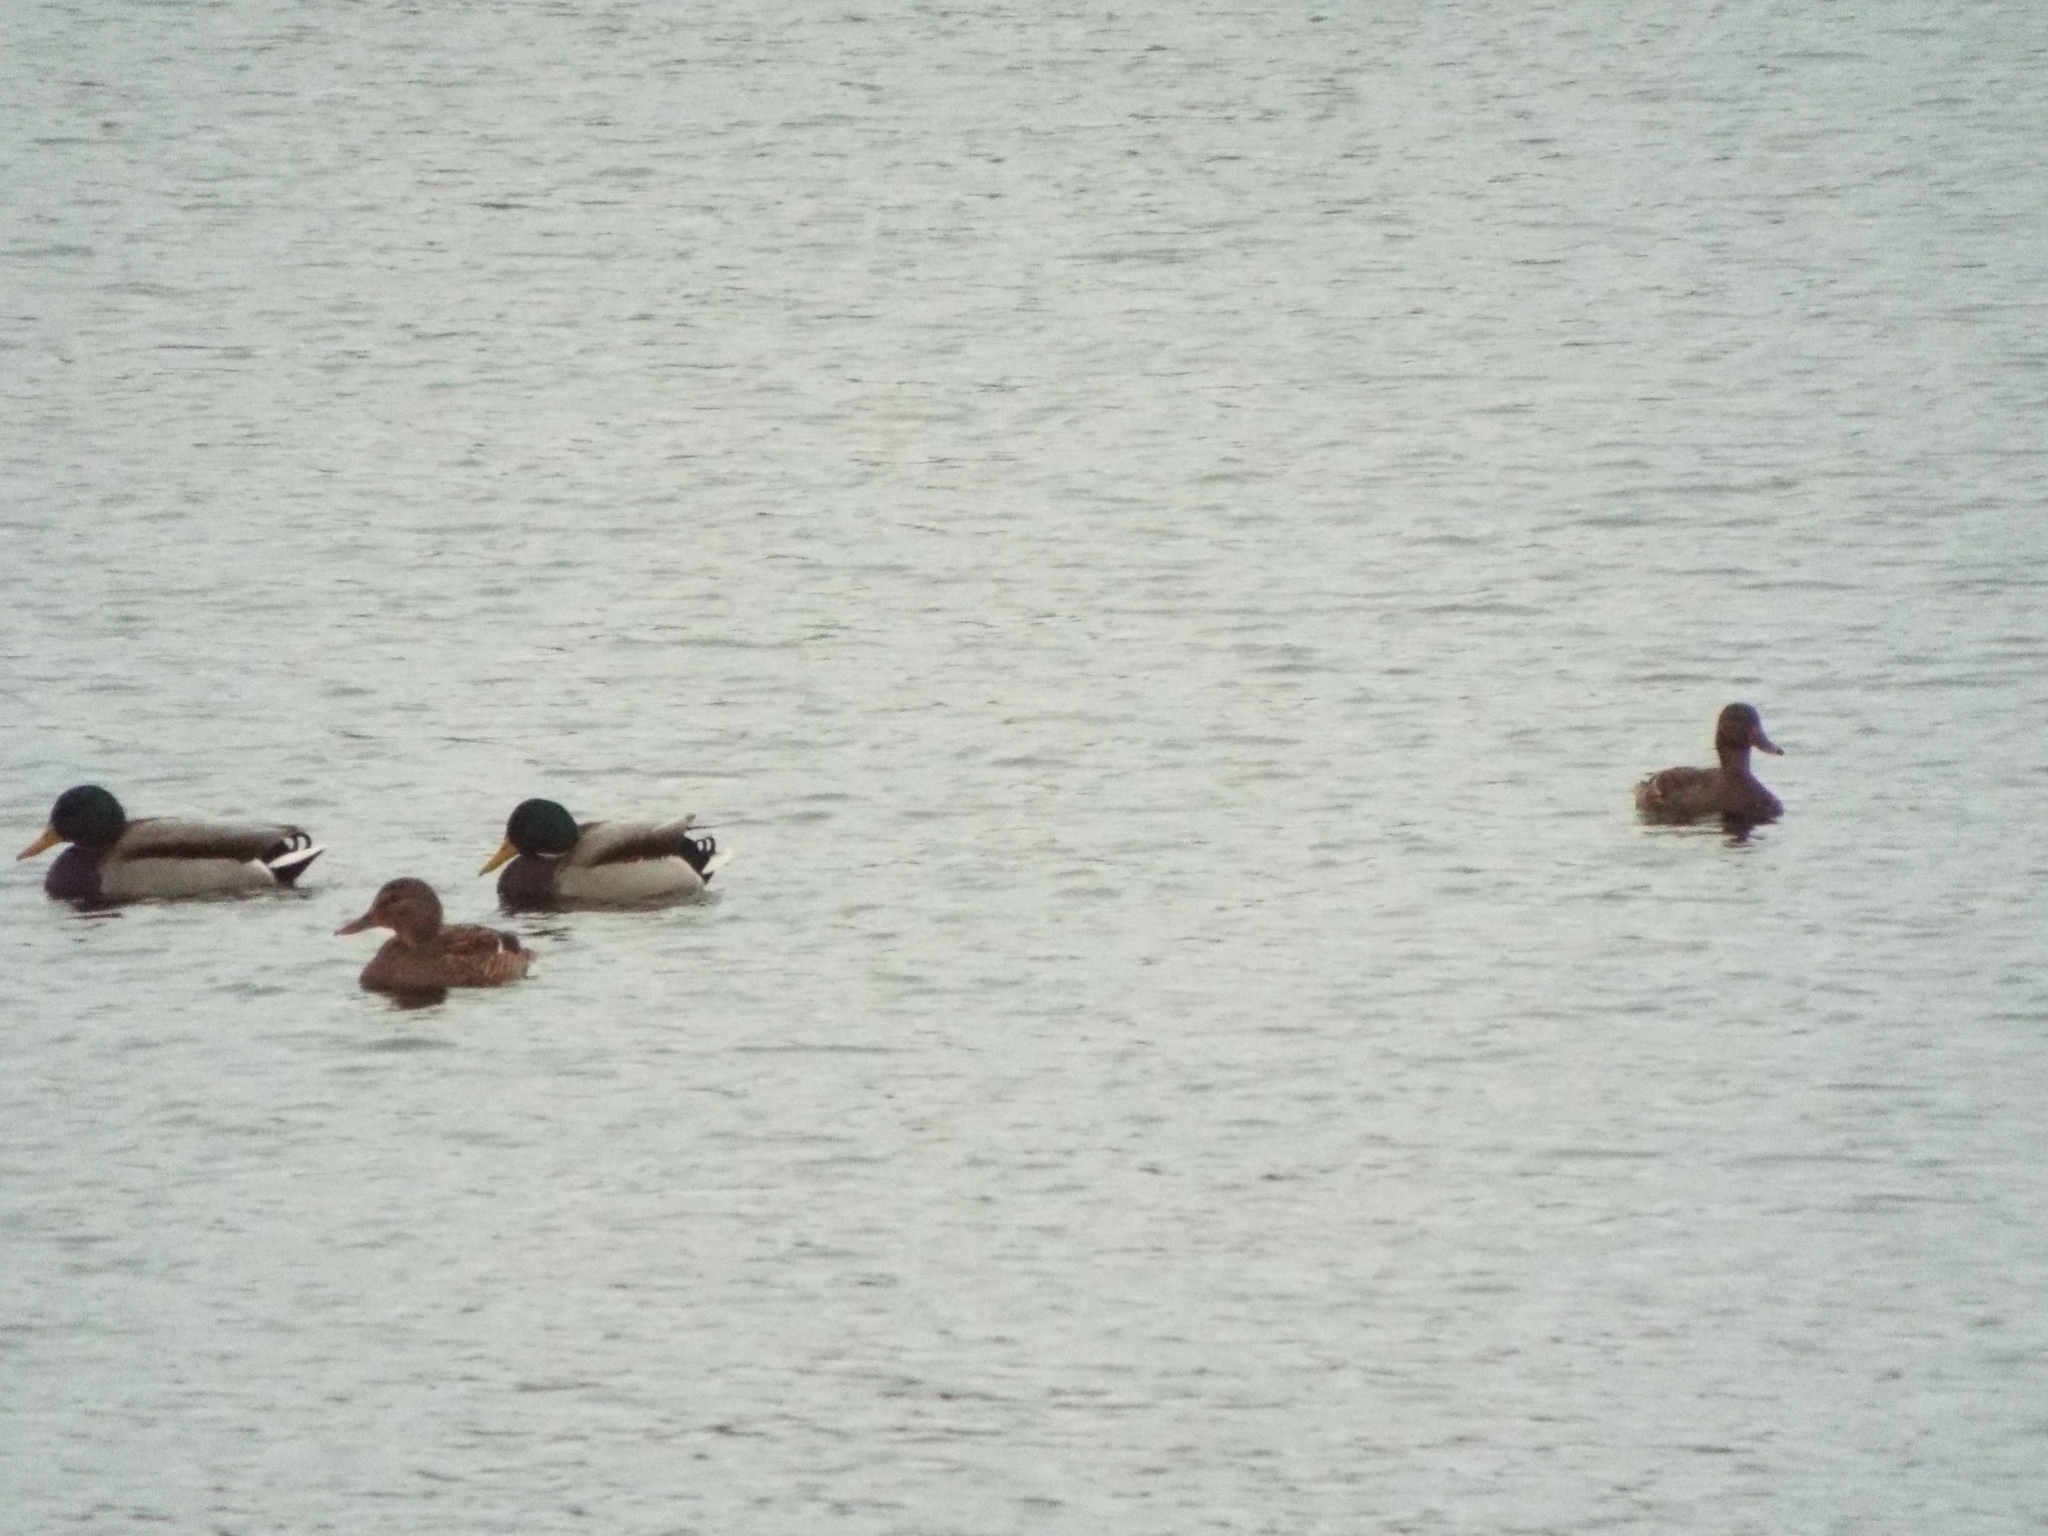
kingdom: Animalia
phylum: Chordata
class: Aves
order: Anseriformes
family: Anatidae
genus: Anas
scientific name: Anas platyrhynchos
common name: Mallard
